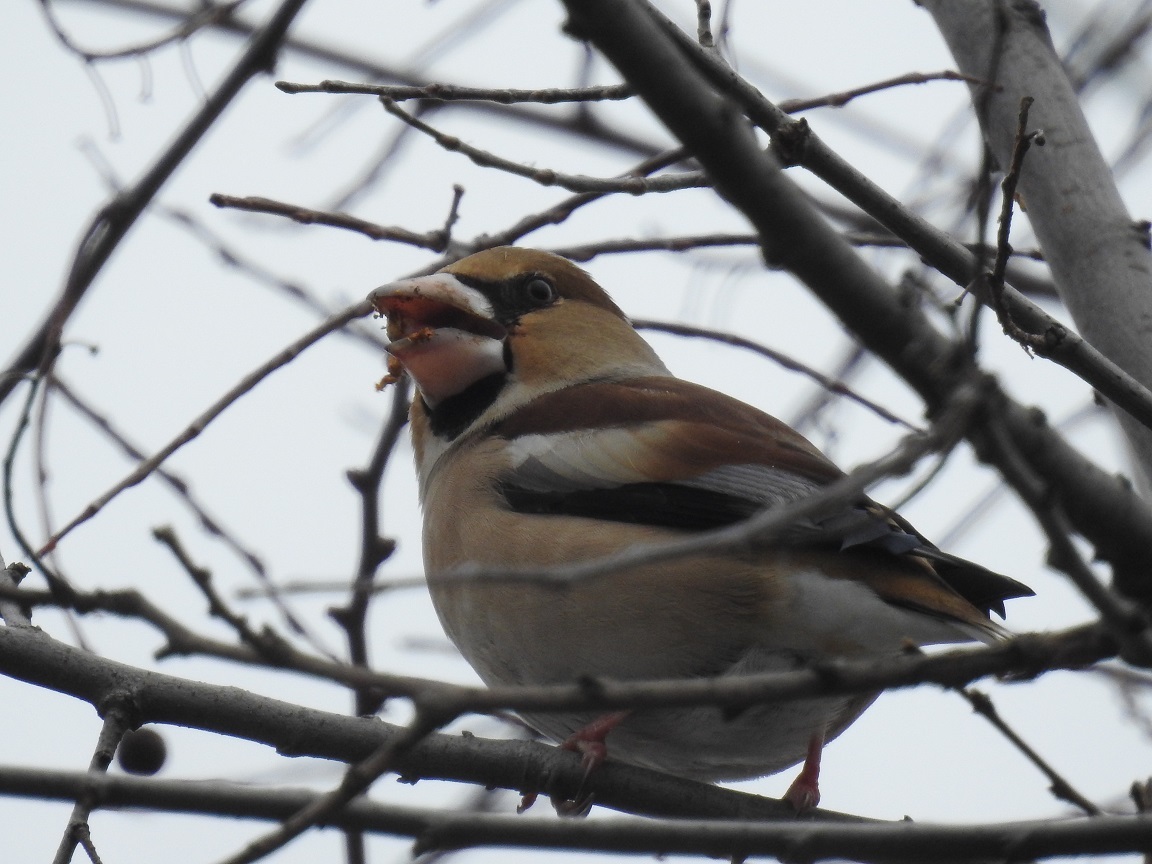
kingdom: Animalia
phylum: Chordata
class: Aves
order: Passeriformes
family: Fringillidae
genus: Coccothraustes
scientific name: Coccothraustes coccothraustes
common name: Hawfinch
